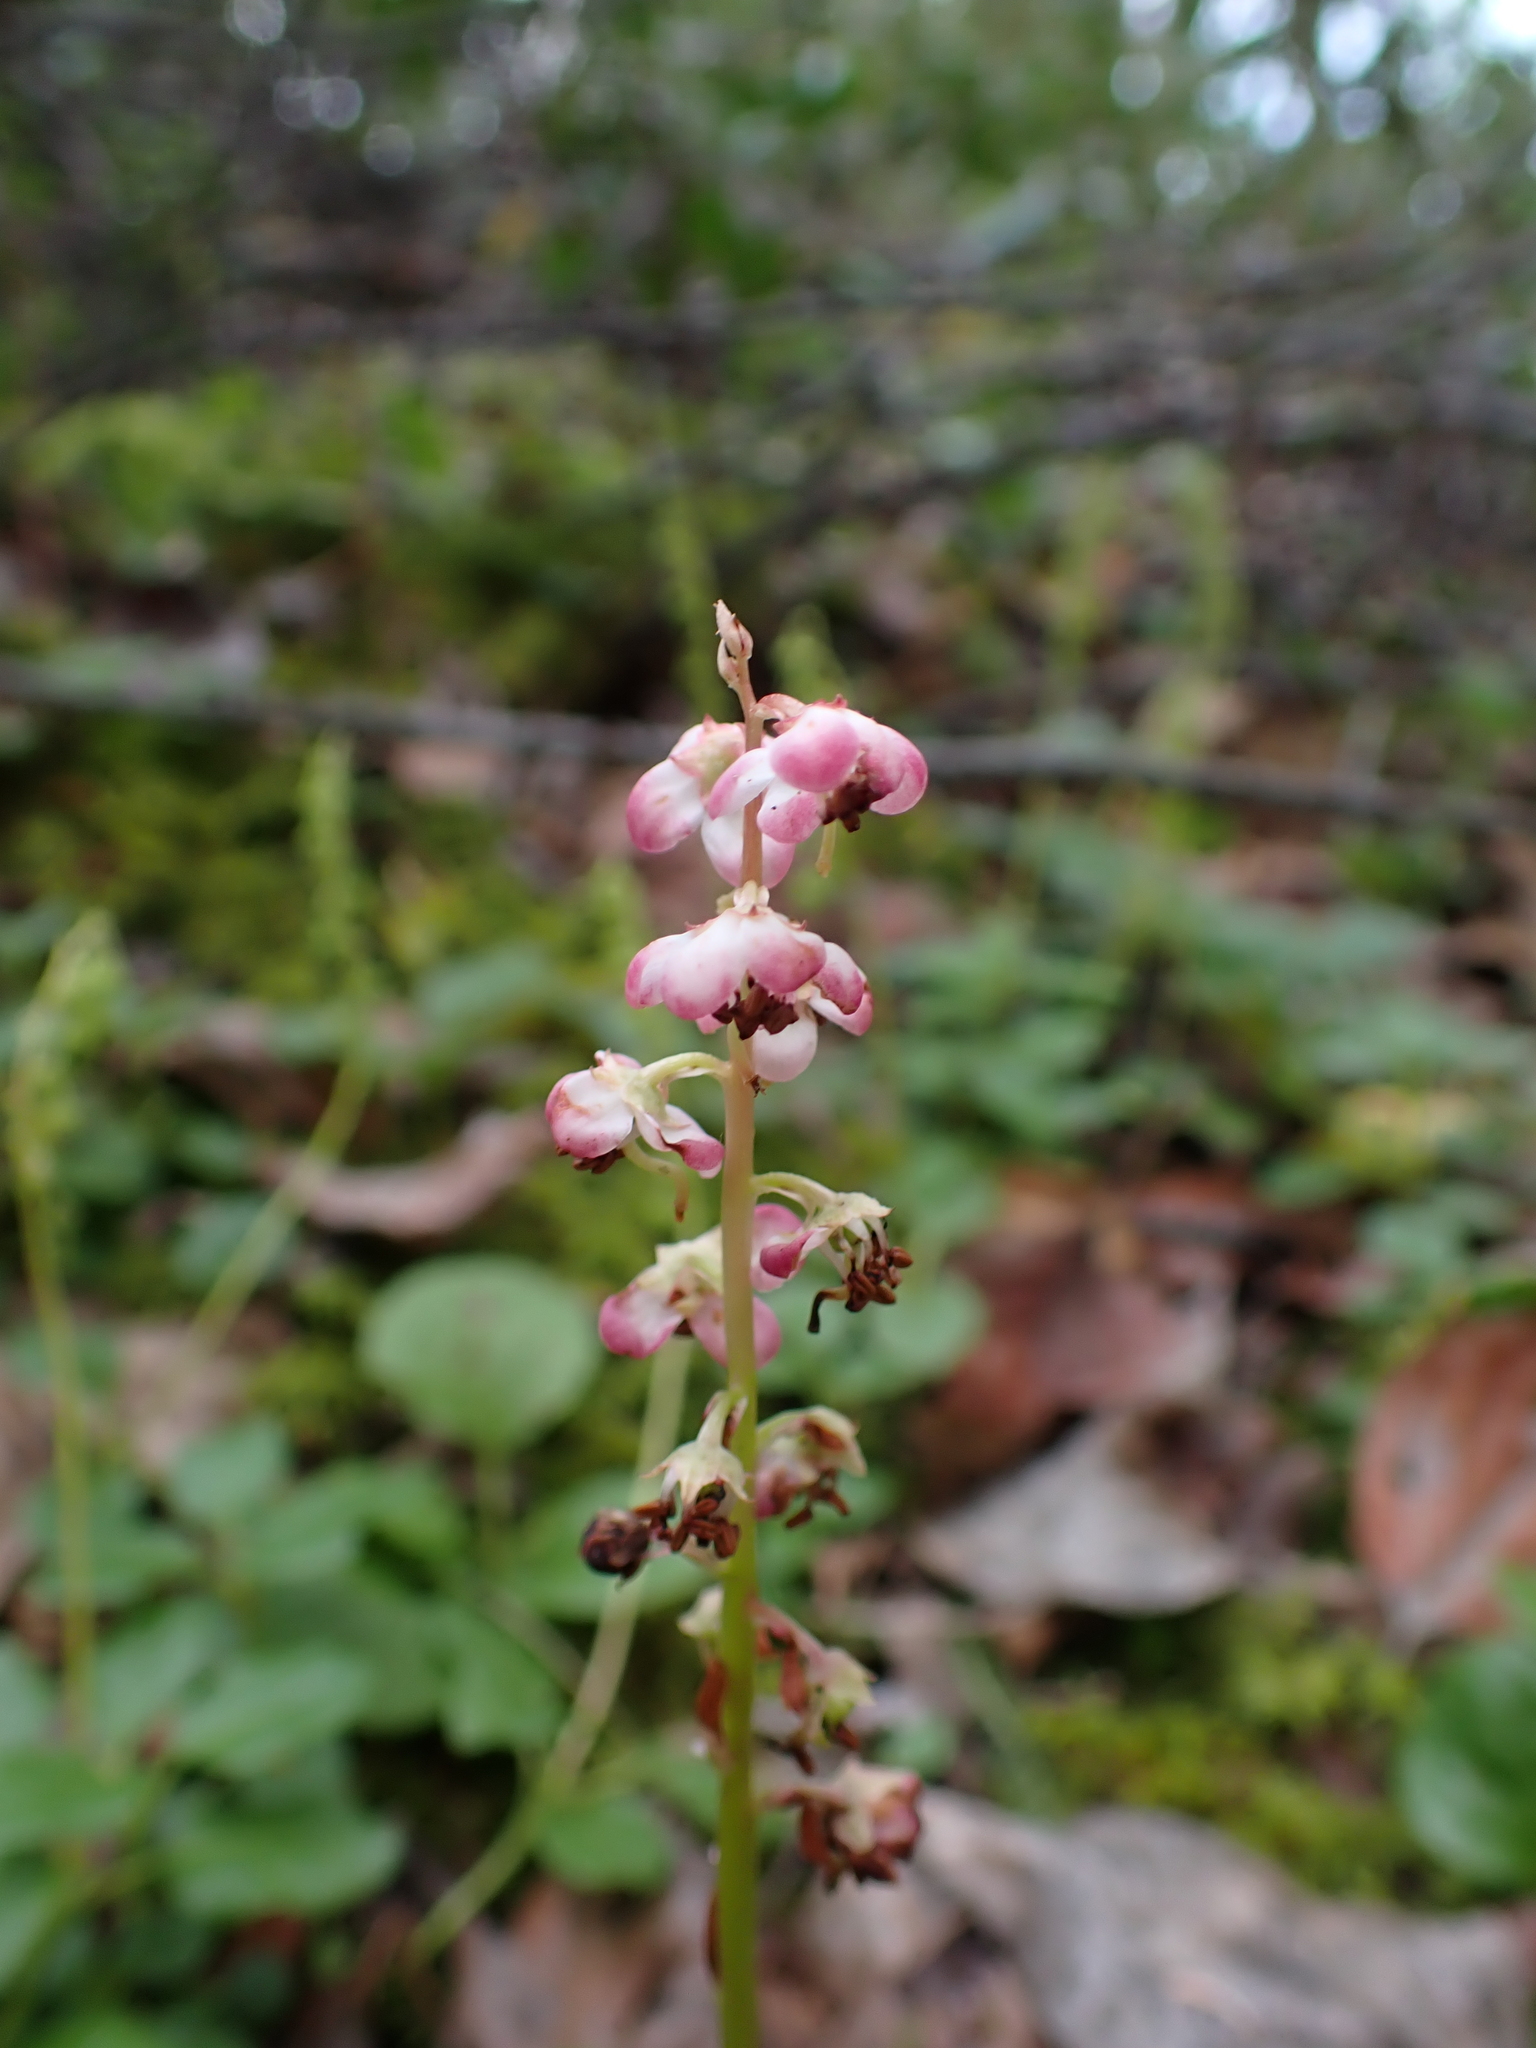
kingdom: Plantae
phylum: Tracheophyta
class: Magnoliopsida
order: Ericales
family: Ericaceae
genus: Pyrola
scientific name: Pyrola asarifolia
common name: Bog wintergreen
